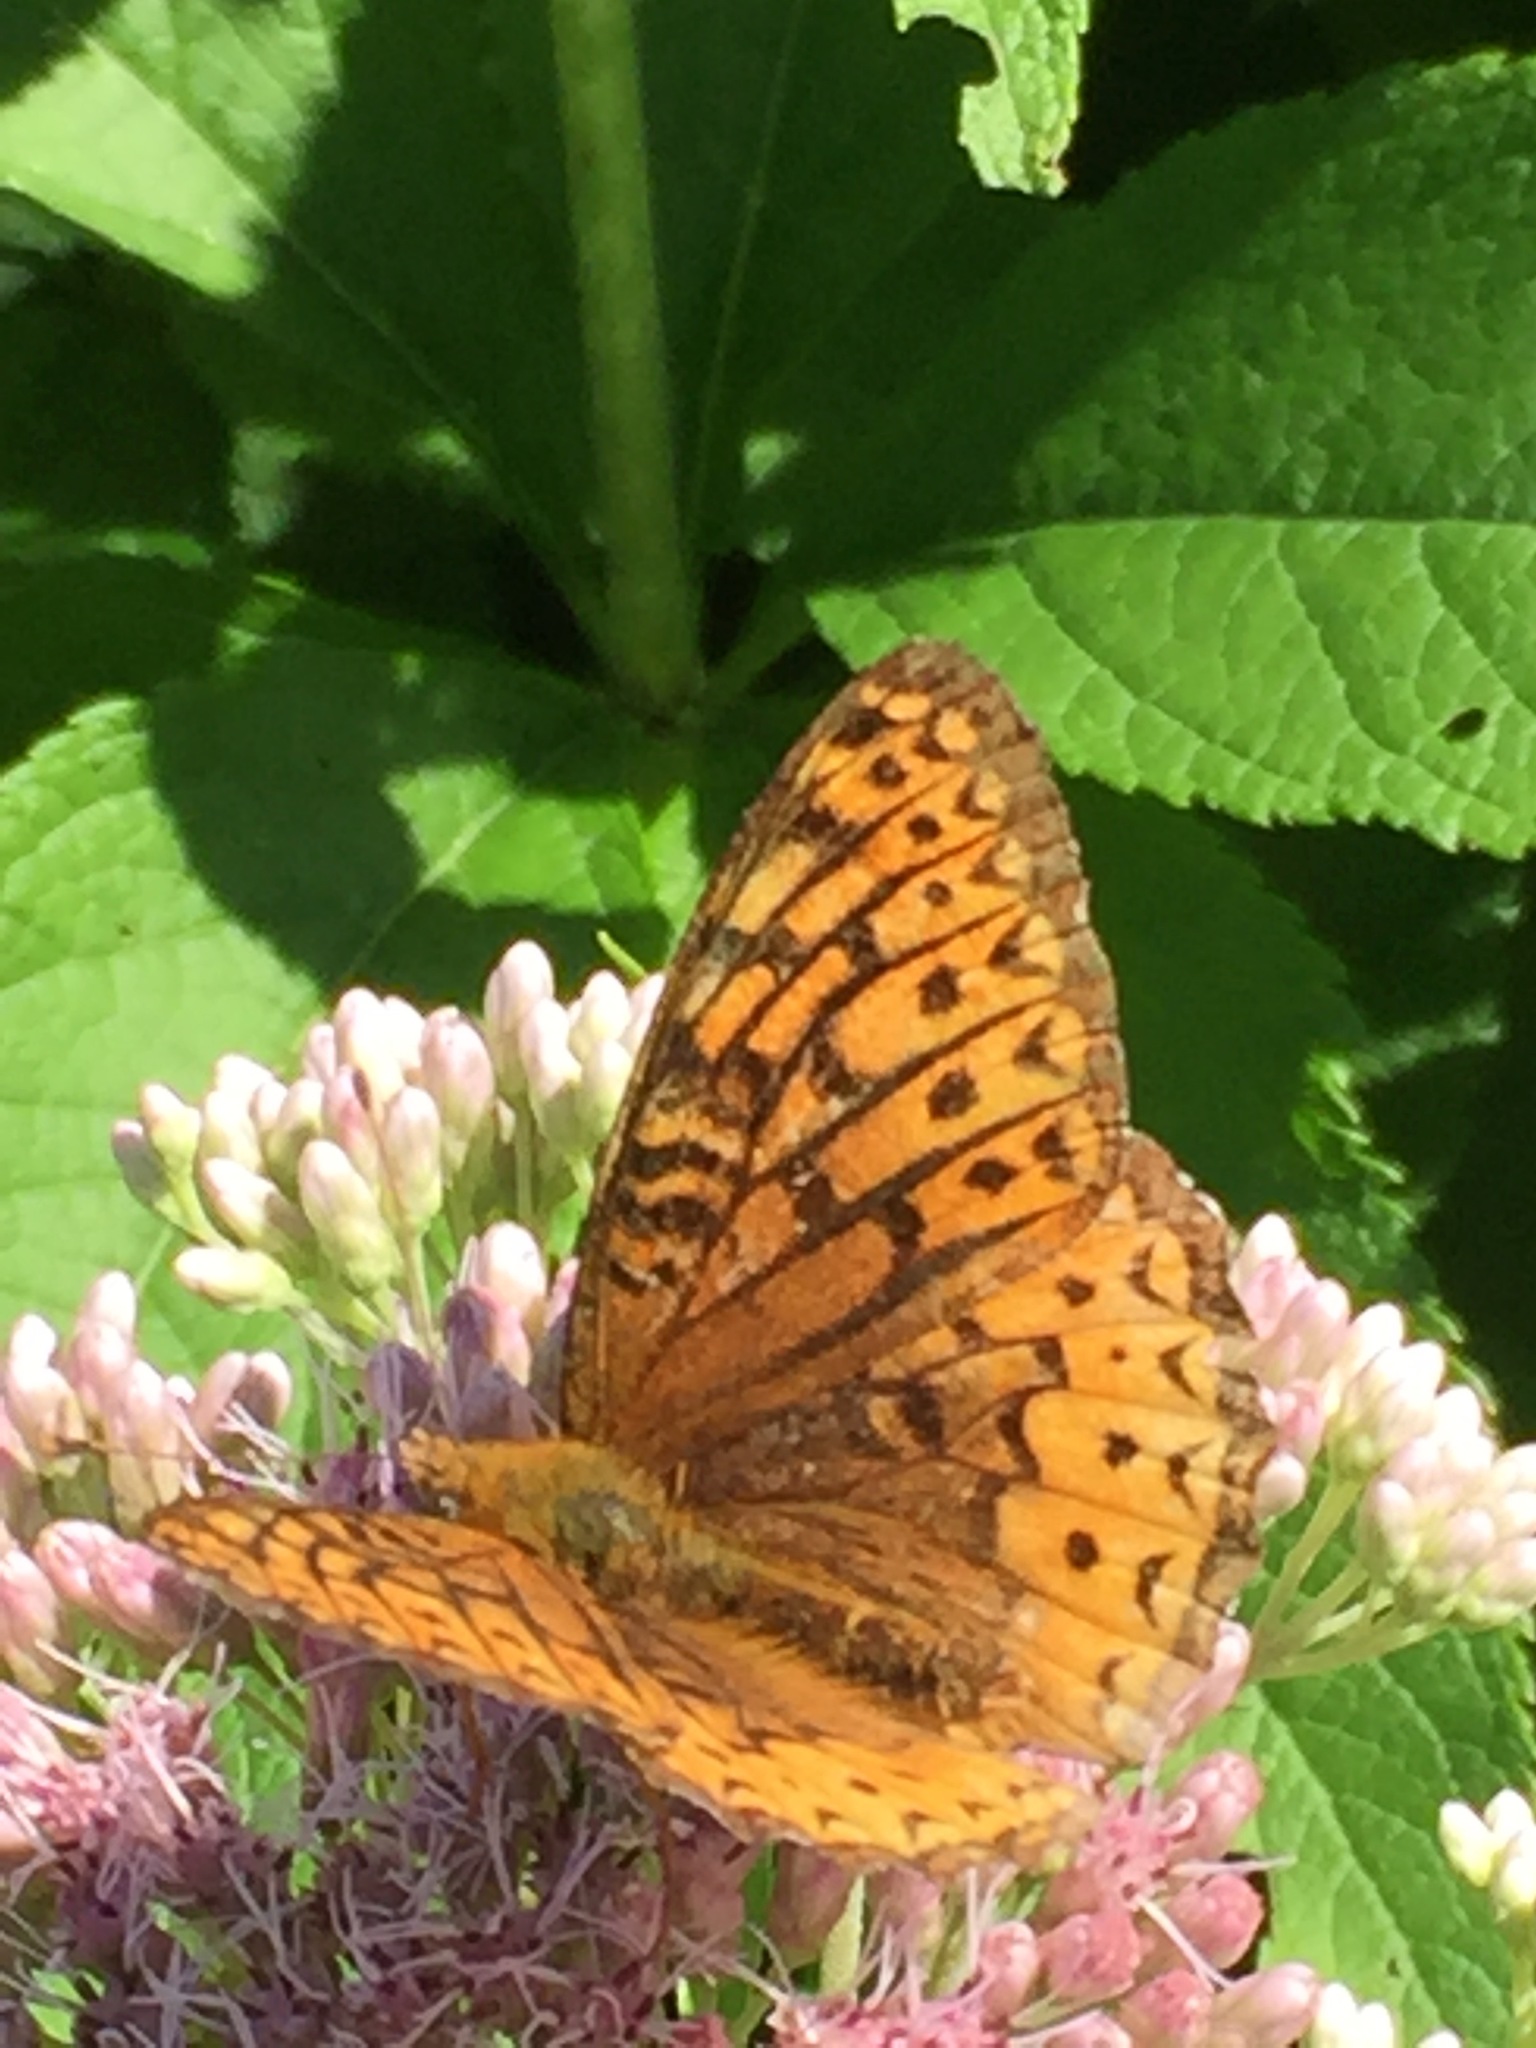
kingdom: Animalia
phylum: Arthropoda
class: Insecta
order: Lepidoptera
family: Nymphalidae
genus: Speyeria
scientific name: Speyeria atlantis
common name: Atlantis fritillary
